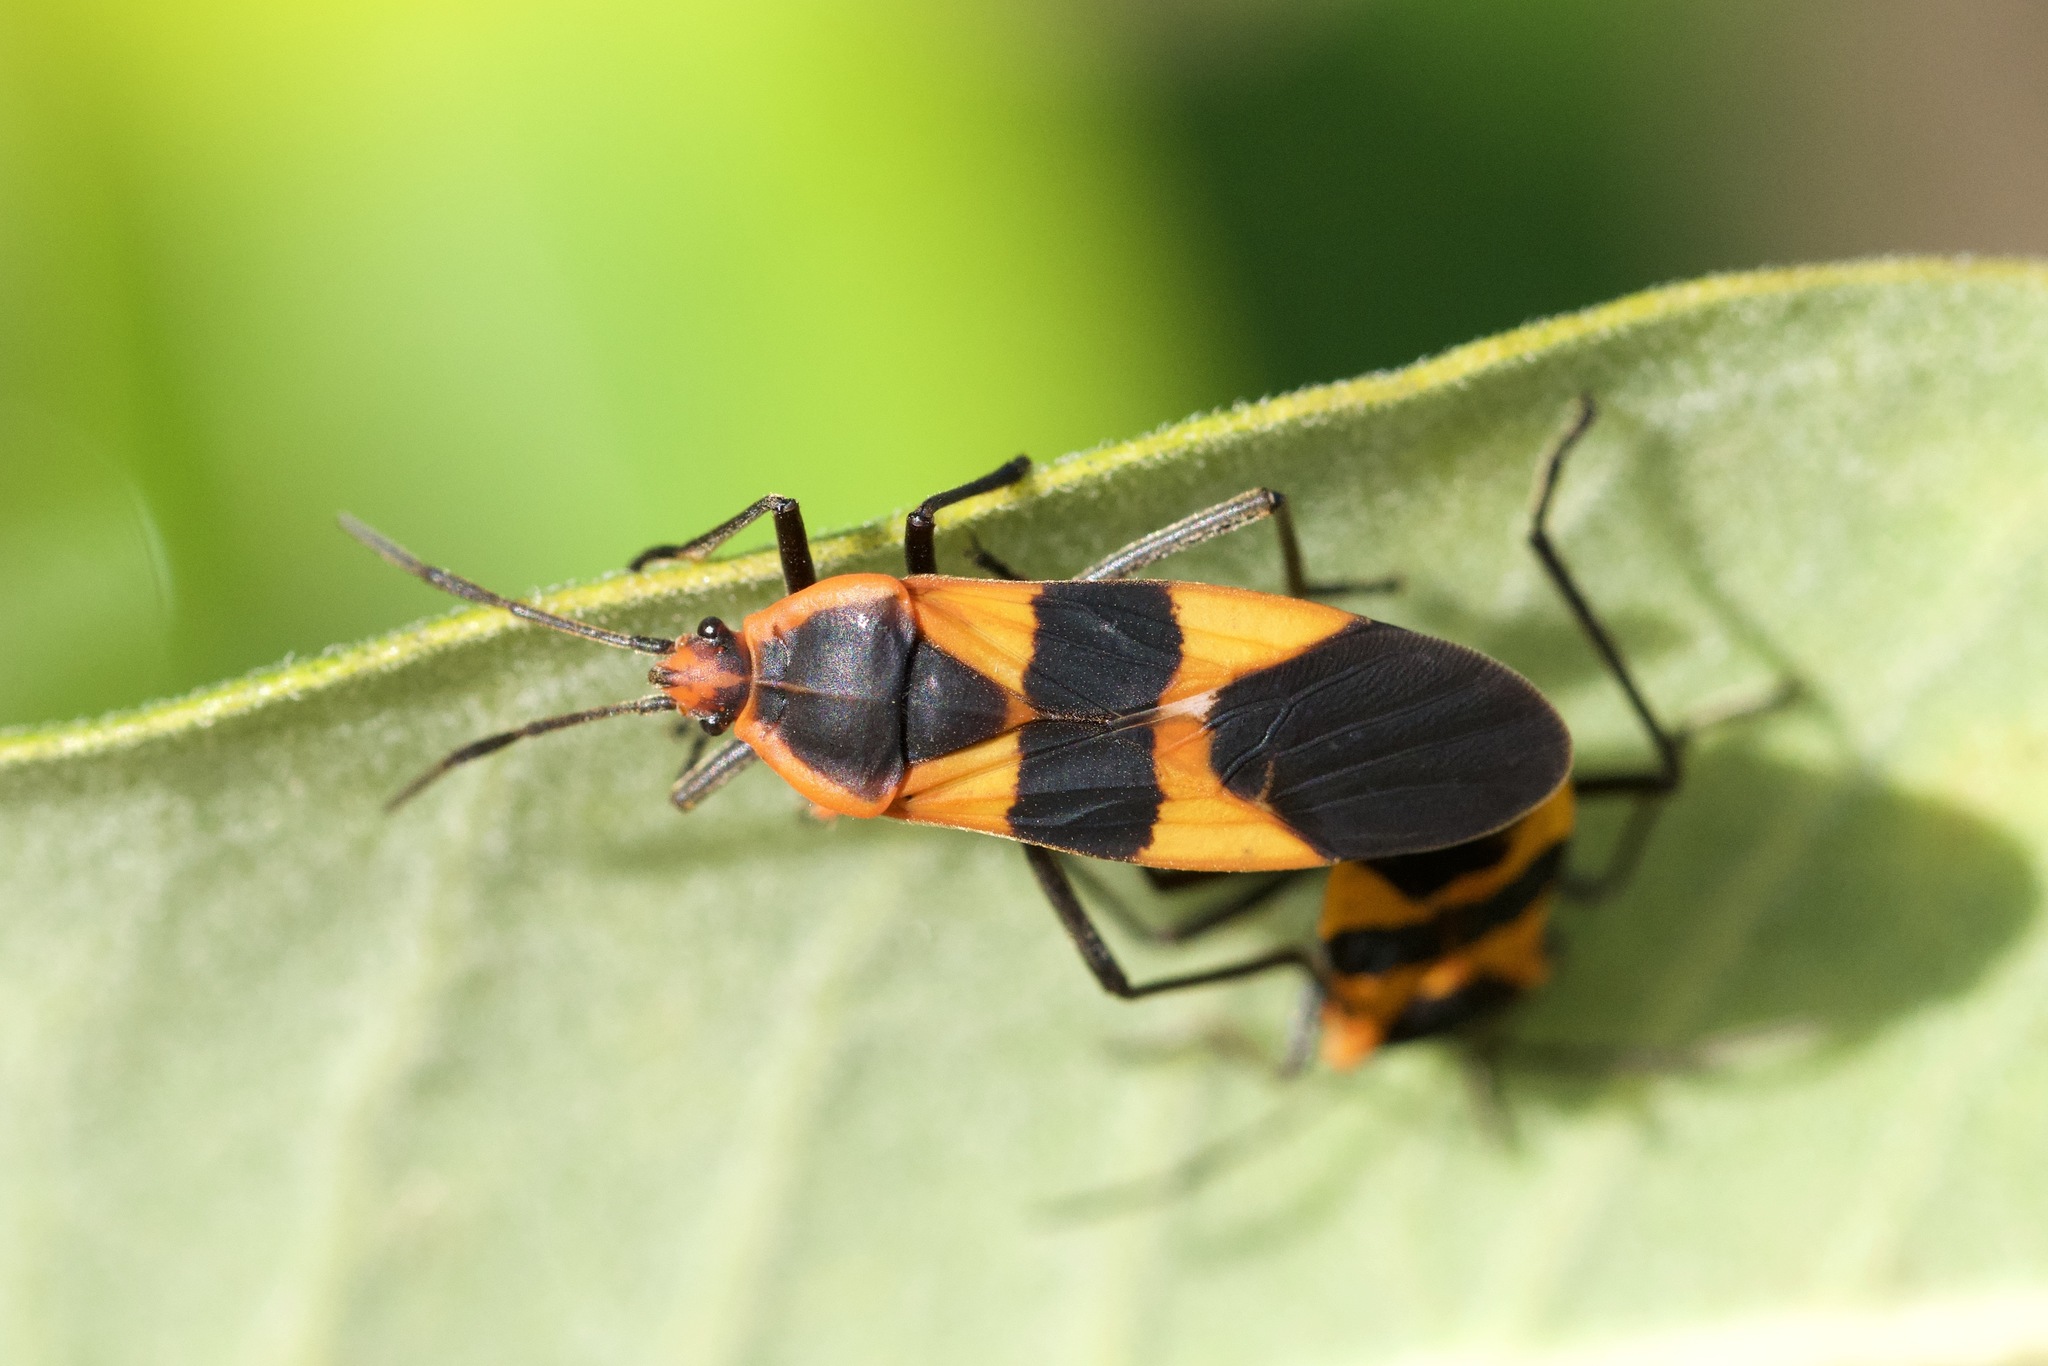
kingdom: Animalia
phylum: Arthropoda
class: Insecta
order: Hemiptera
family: Lygaeidae
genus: Oncopeltus
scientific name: Oncopeltus fasciatus
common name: Large milkweed bug
